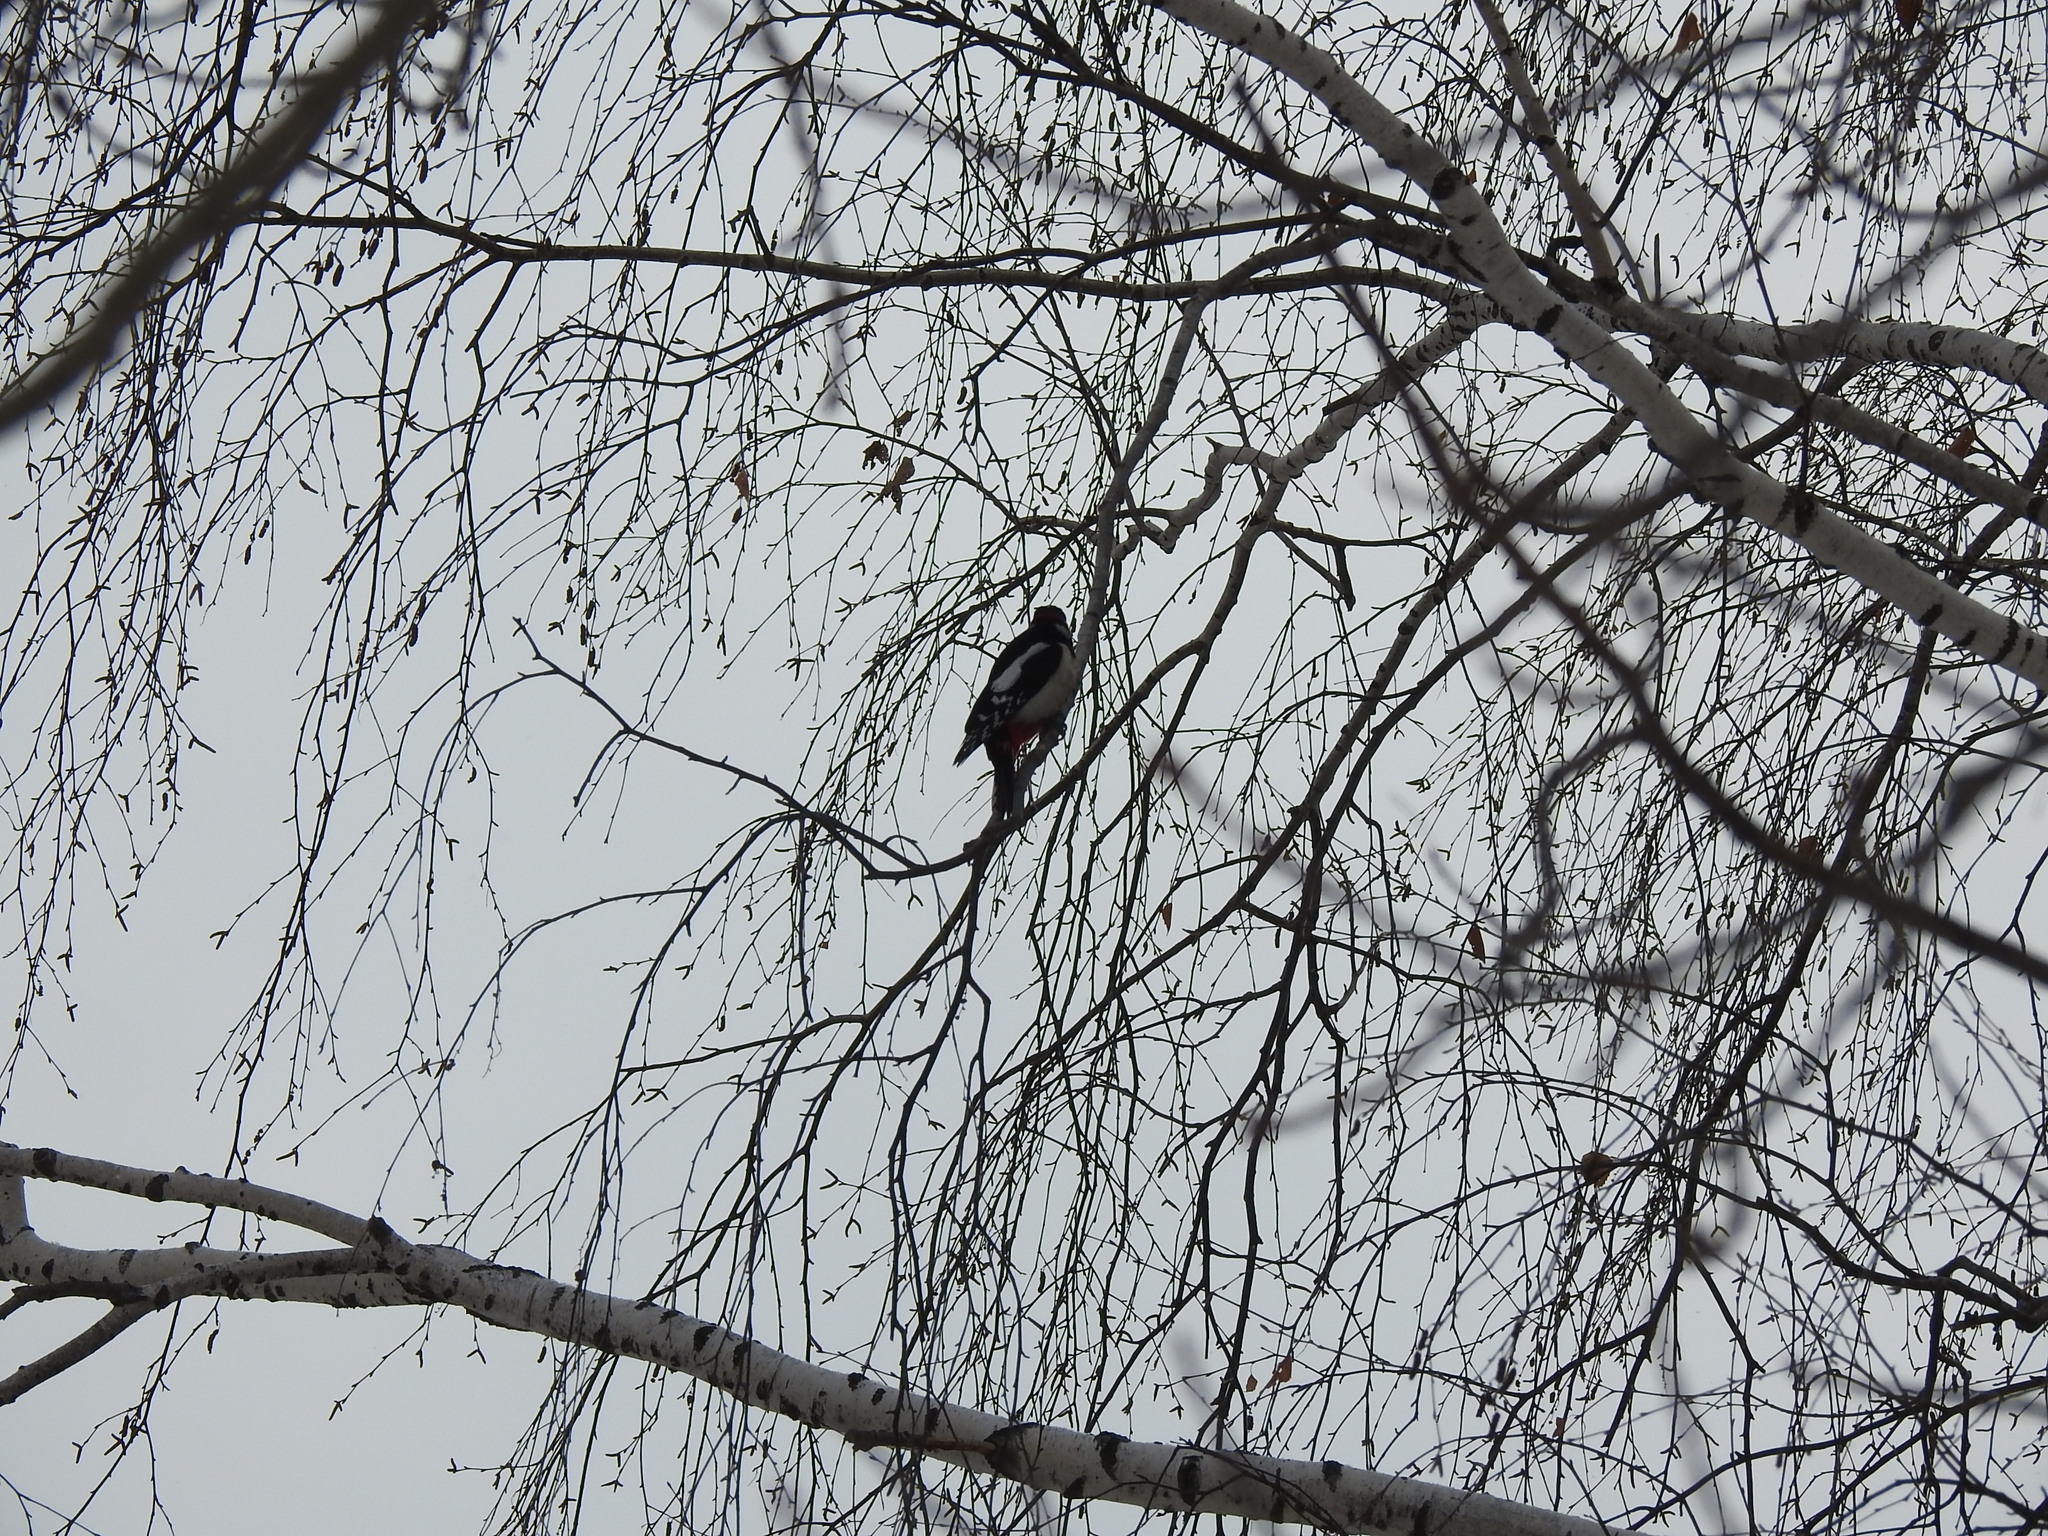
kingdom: Animalia
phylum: Chordata
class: Aves
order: Piciformes
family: Picidae
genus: Dendrocopos
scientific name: Dendrocopos major
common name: Great spotted woodpecker
